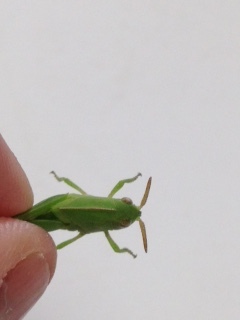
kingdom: Animalia
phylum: Arthropoda
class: Insecta
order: Orthoptera
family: Acrididae
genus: Chortophaga
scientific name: Chortophaga viridifasciata
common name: Green-striped grasshopper
